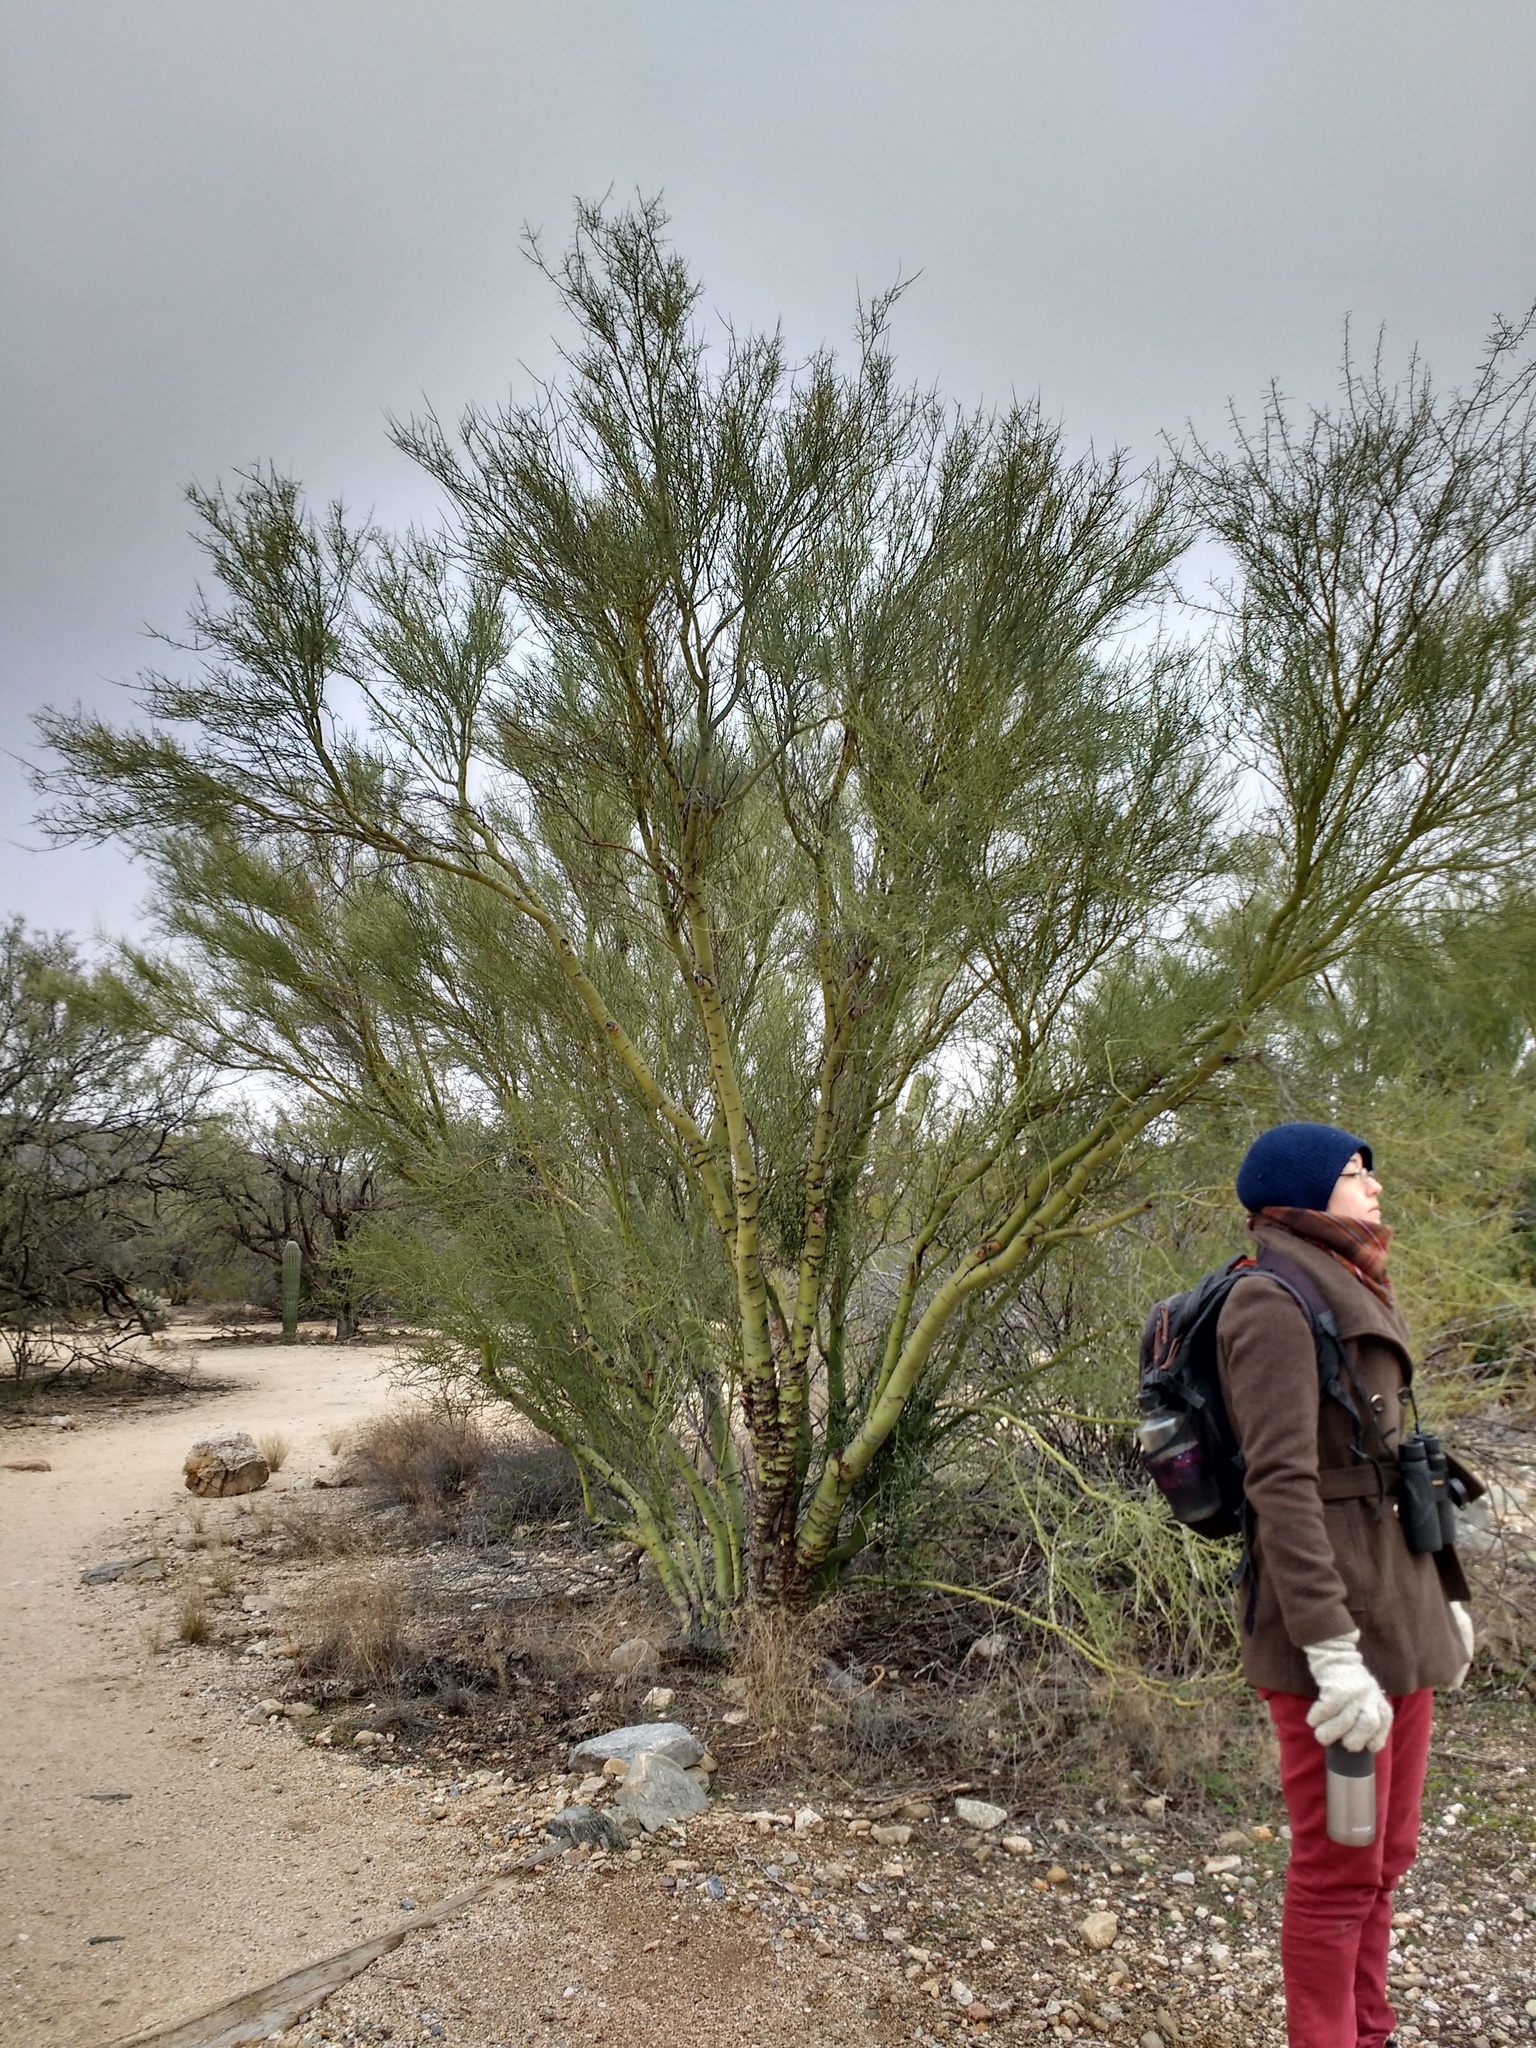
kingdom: Plantae
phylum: Tracheophyta
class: Magnoliopsida
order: Fabales
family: Fabaceae
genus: Parkinsonia
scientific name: Parkinsonia microphylla
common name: Yellow paloverde
